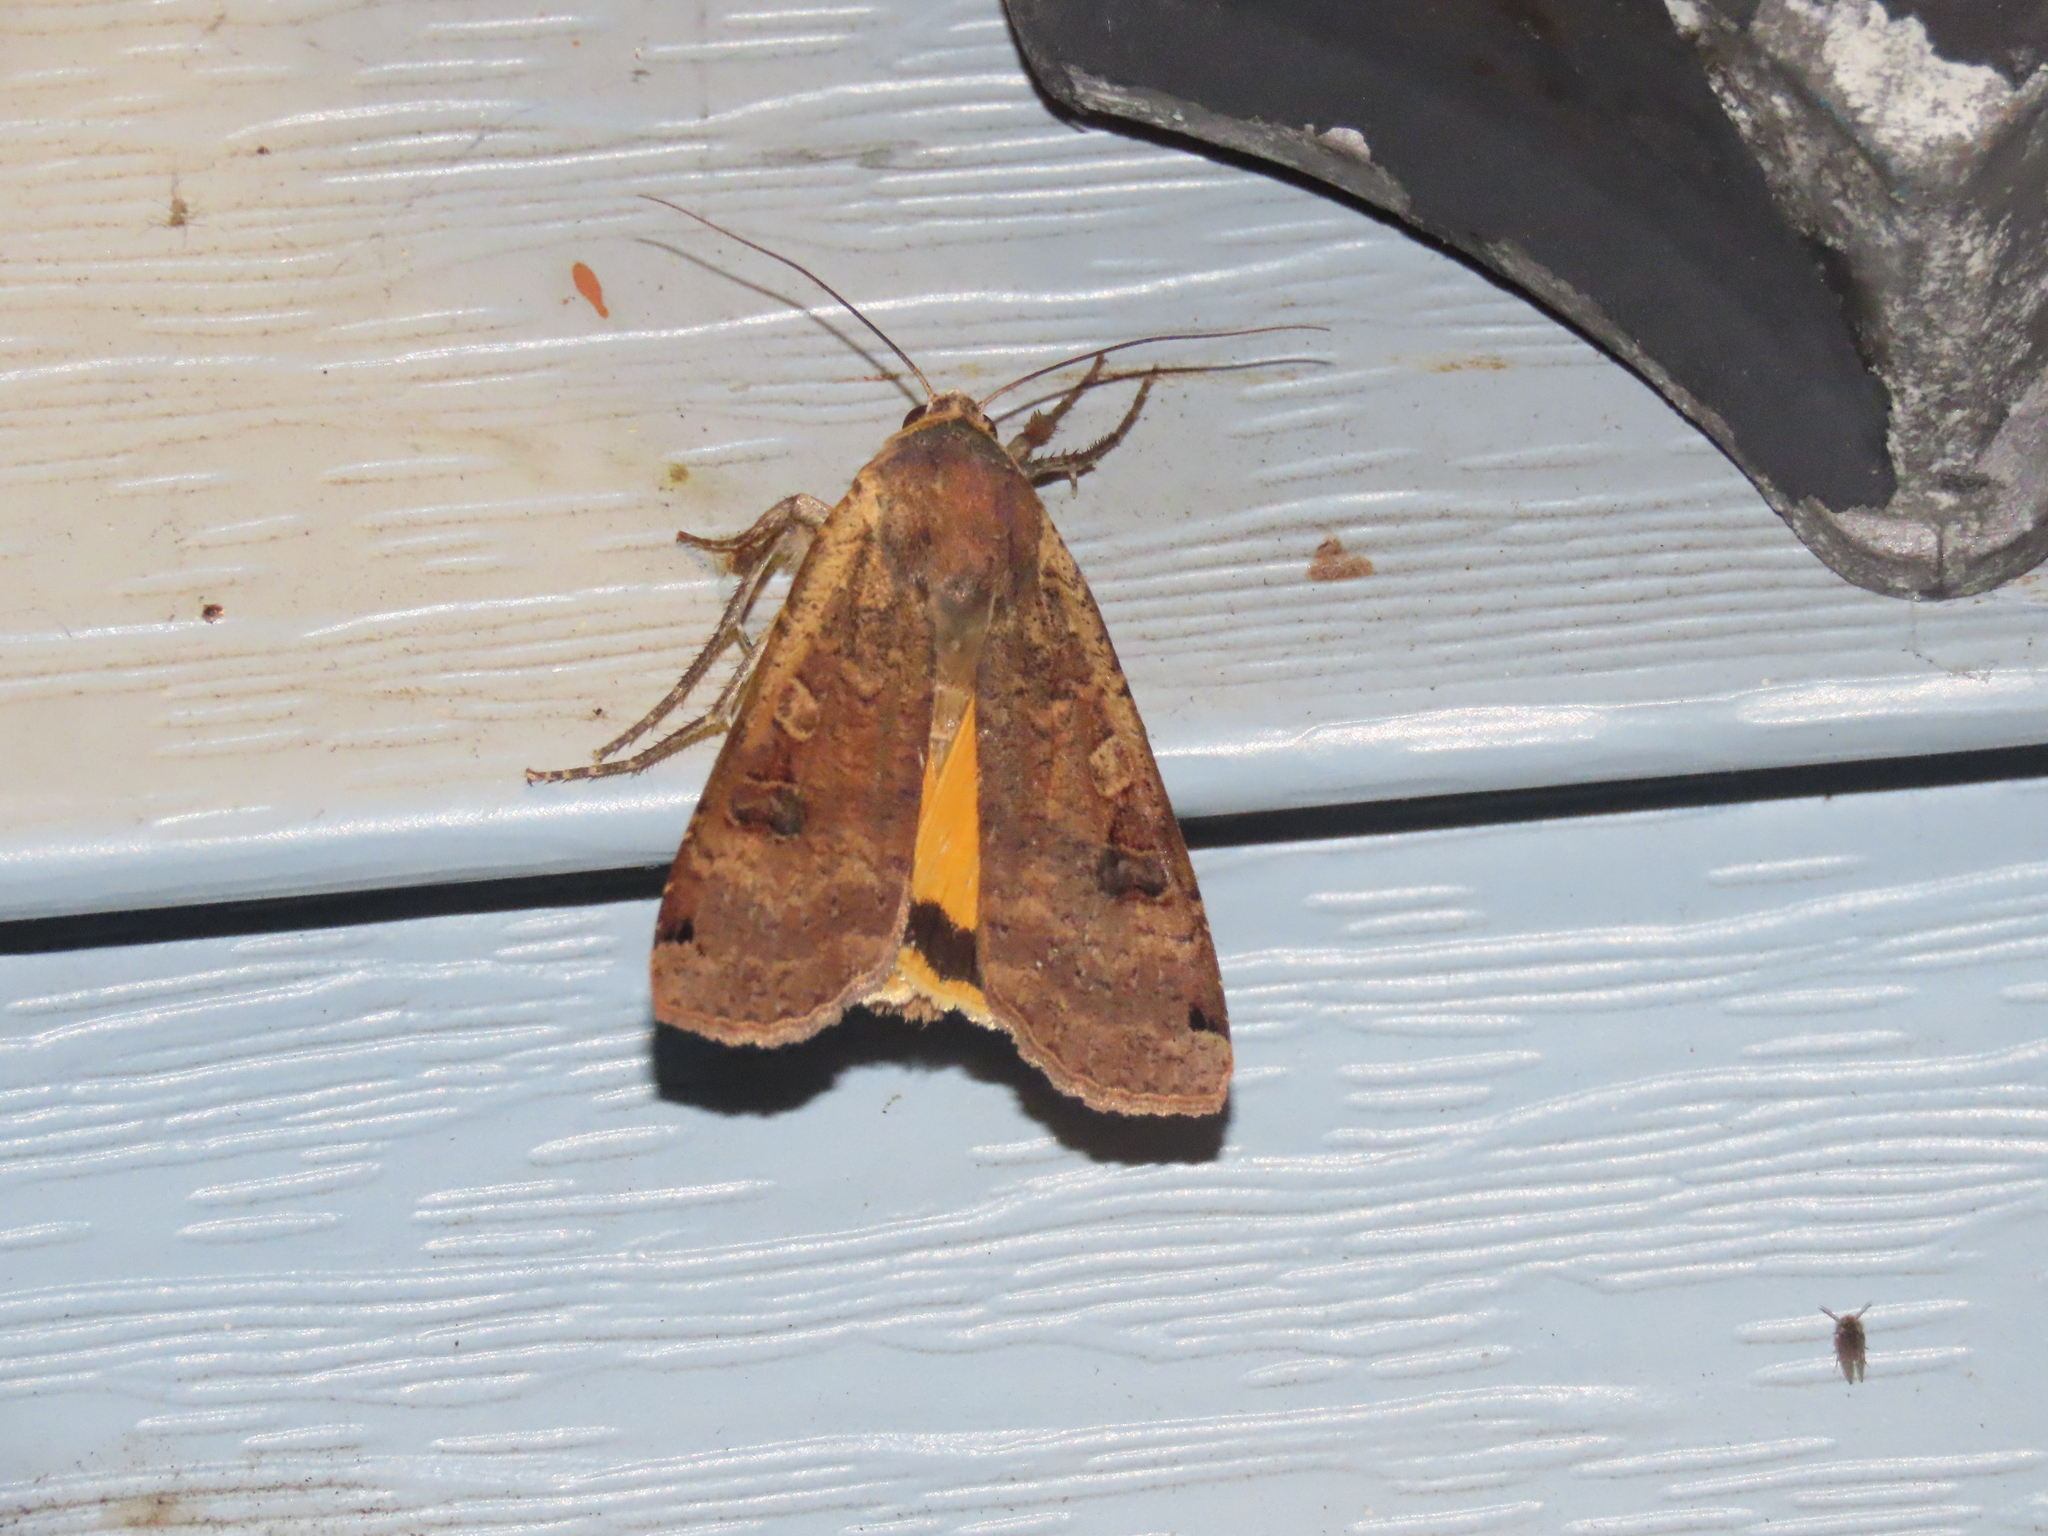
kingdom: Animalia
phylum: Arthropoda
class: Insecta
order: Lepidoptera
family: Noctuidae
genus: Noctua
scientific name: Noctua pronuba
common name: Large yellow underwing
